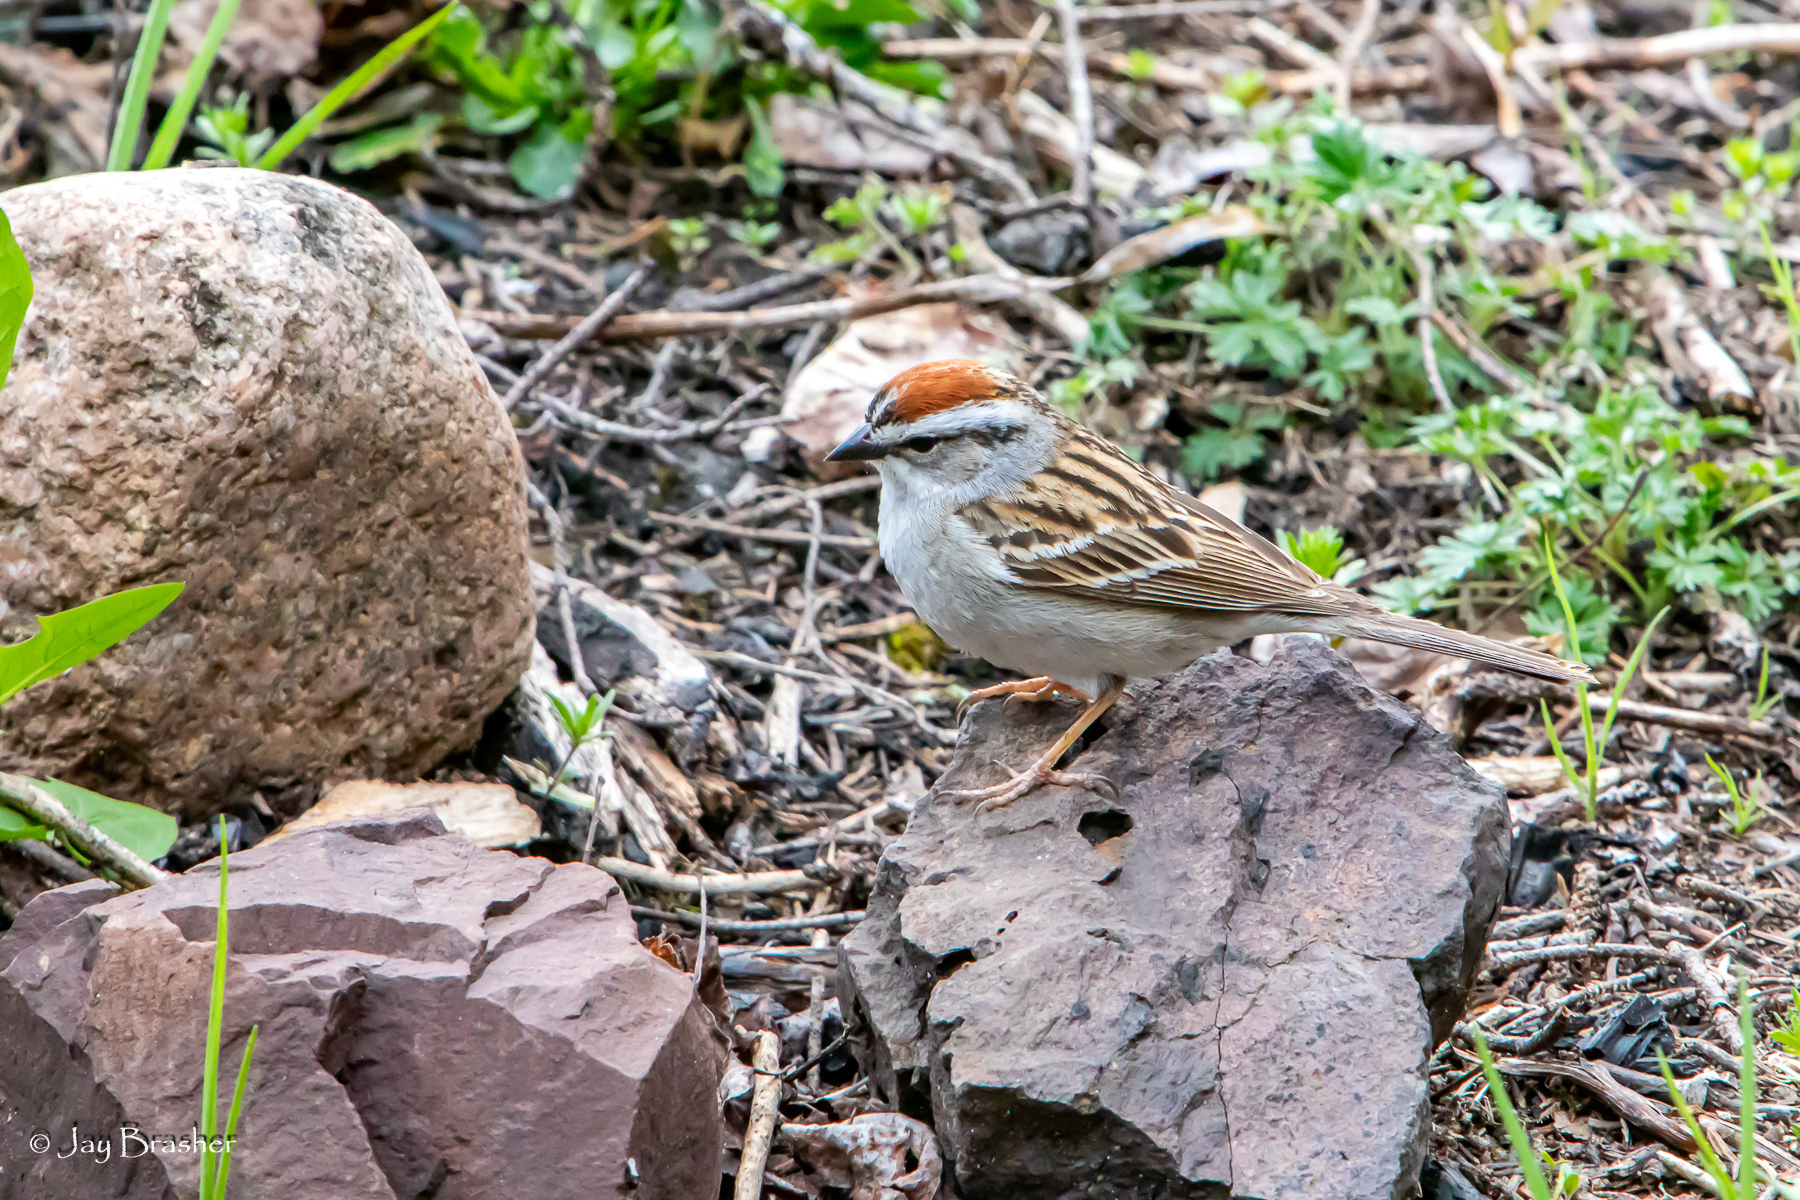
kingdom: Animalia
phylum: Chordata
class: Aves
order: Passeriformes
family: Passerellidae
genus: Spizella
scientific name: Spizella passerina
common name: Chipping sparrow
